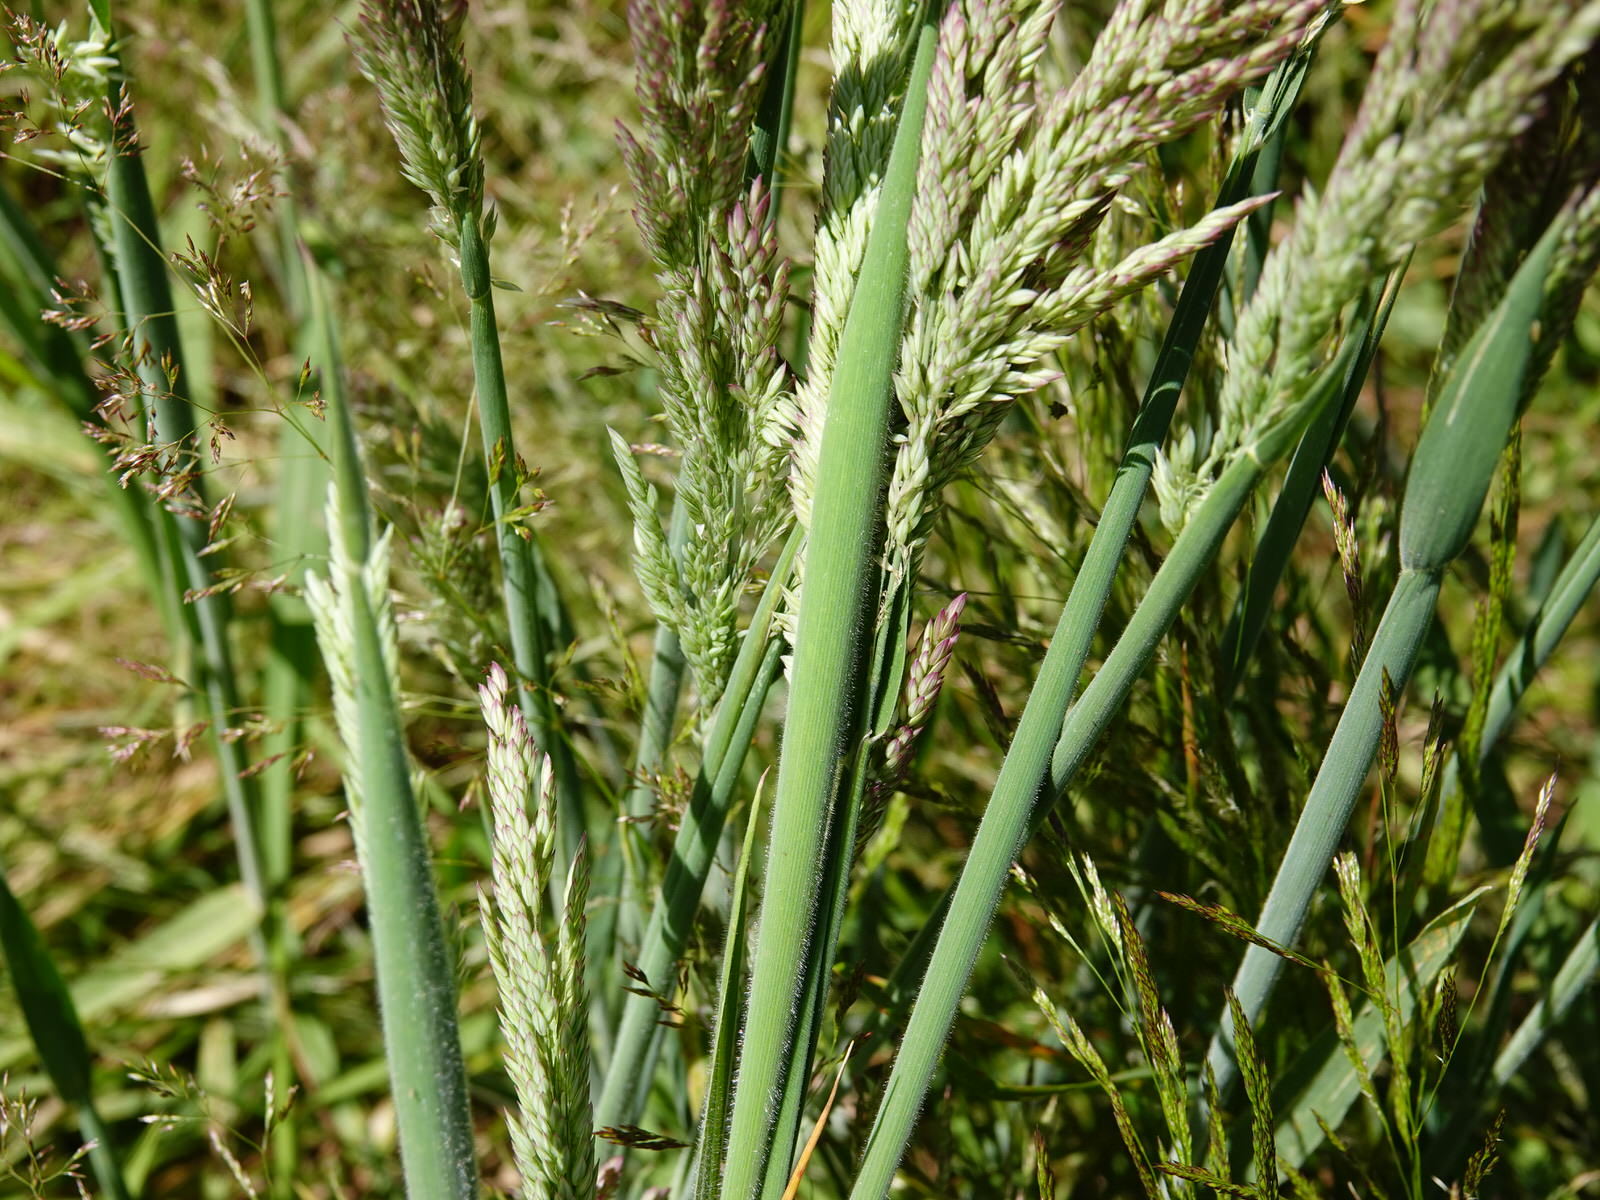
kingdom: Plantae
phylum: Tracheophyta
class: Liliopsida
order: Poales
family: Poaceae
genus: Holcus
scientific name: Holcus lanatus
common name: Yorkshire-fog
